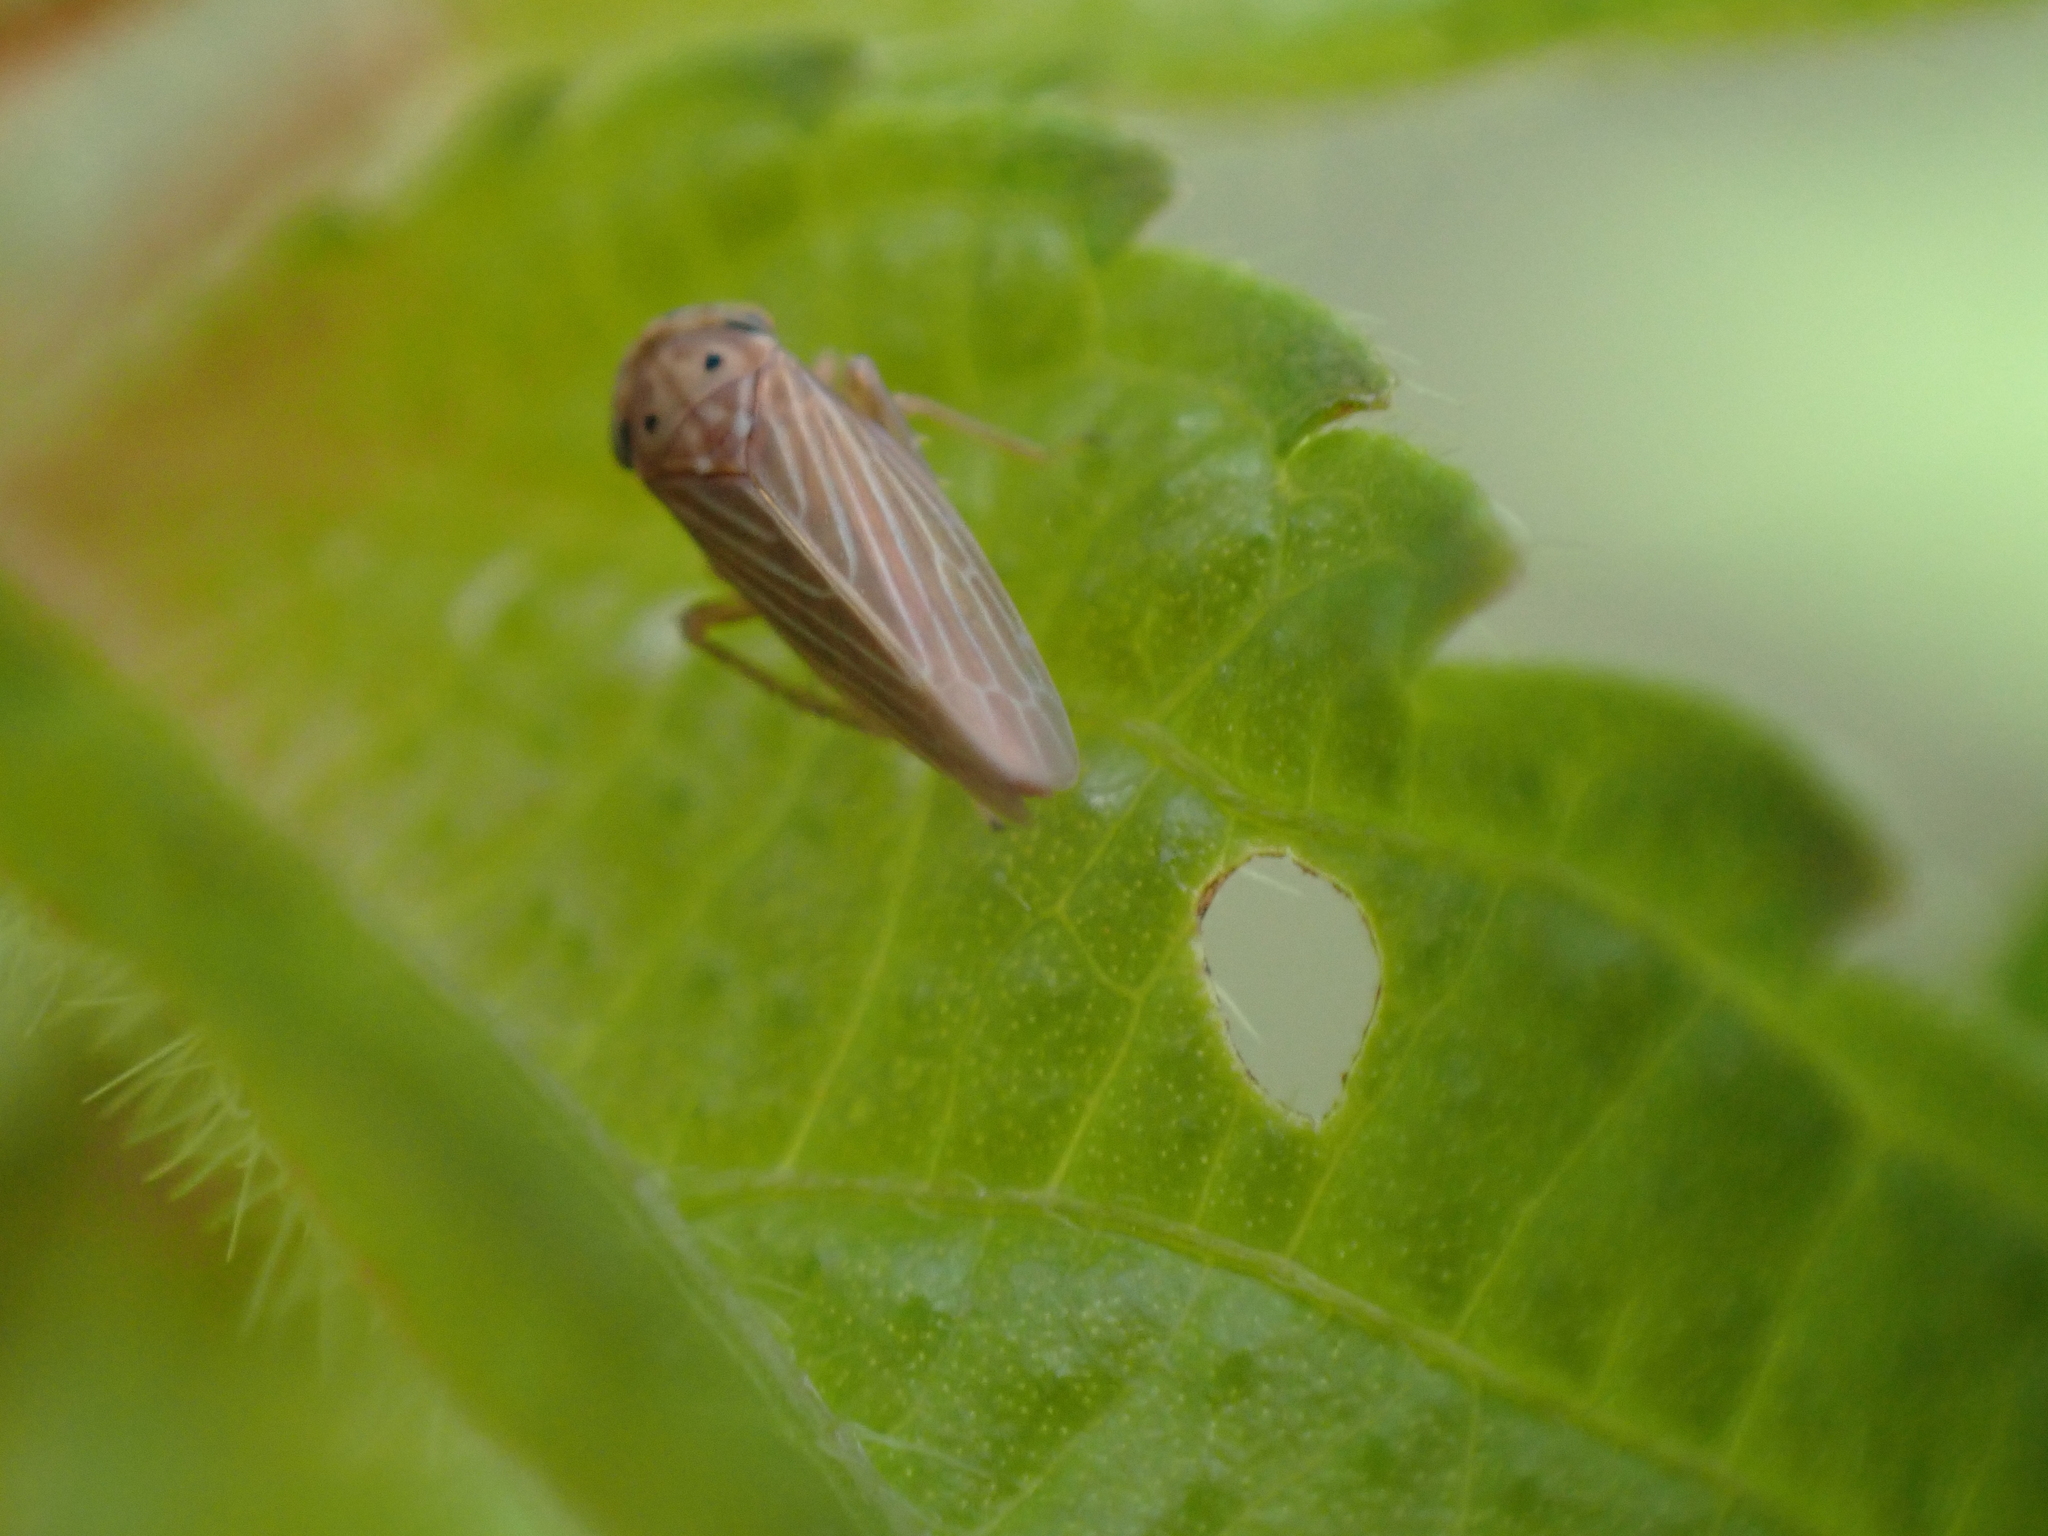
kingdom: Animalia
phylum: Arthropoda
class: Insecta
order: Hemiptera
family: Cicadellidae
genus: Agallia
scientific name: Agallia constricta
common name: The constricted leafhopper
